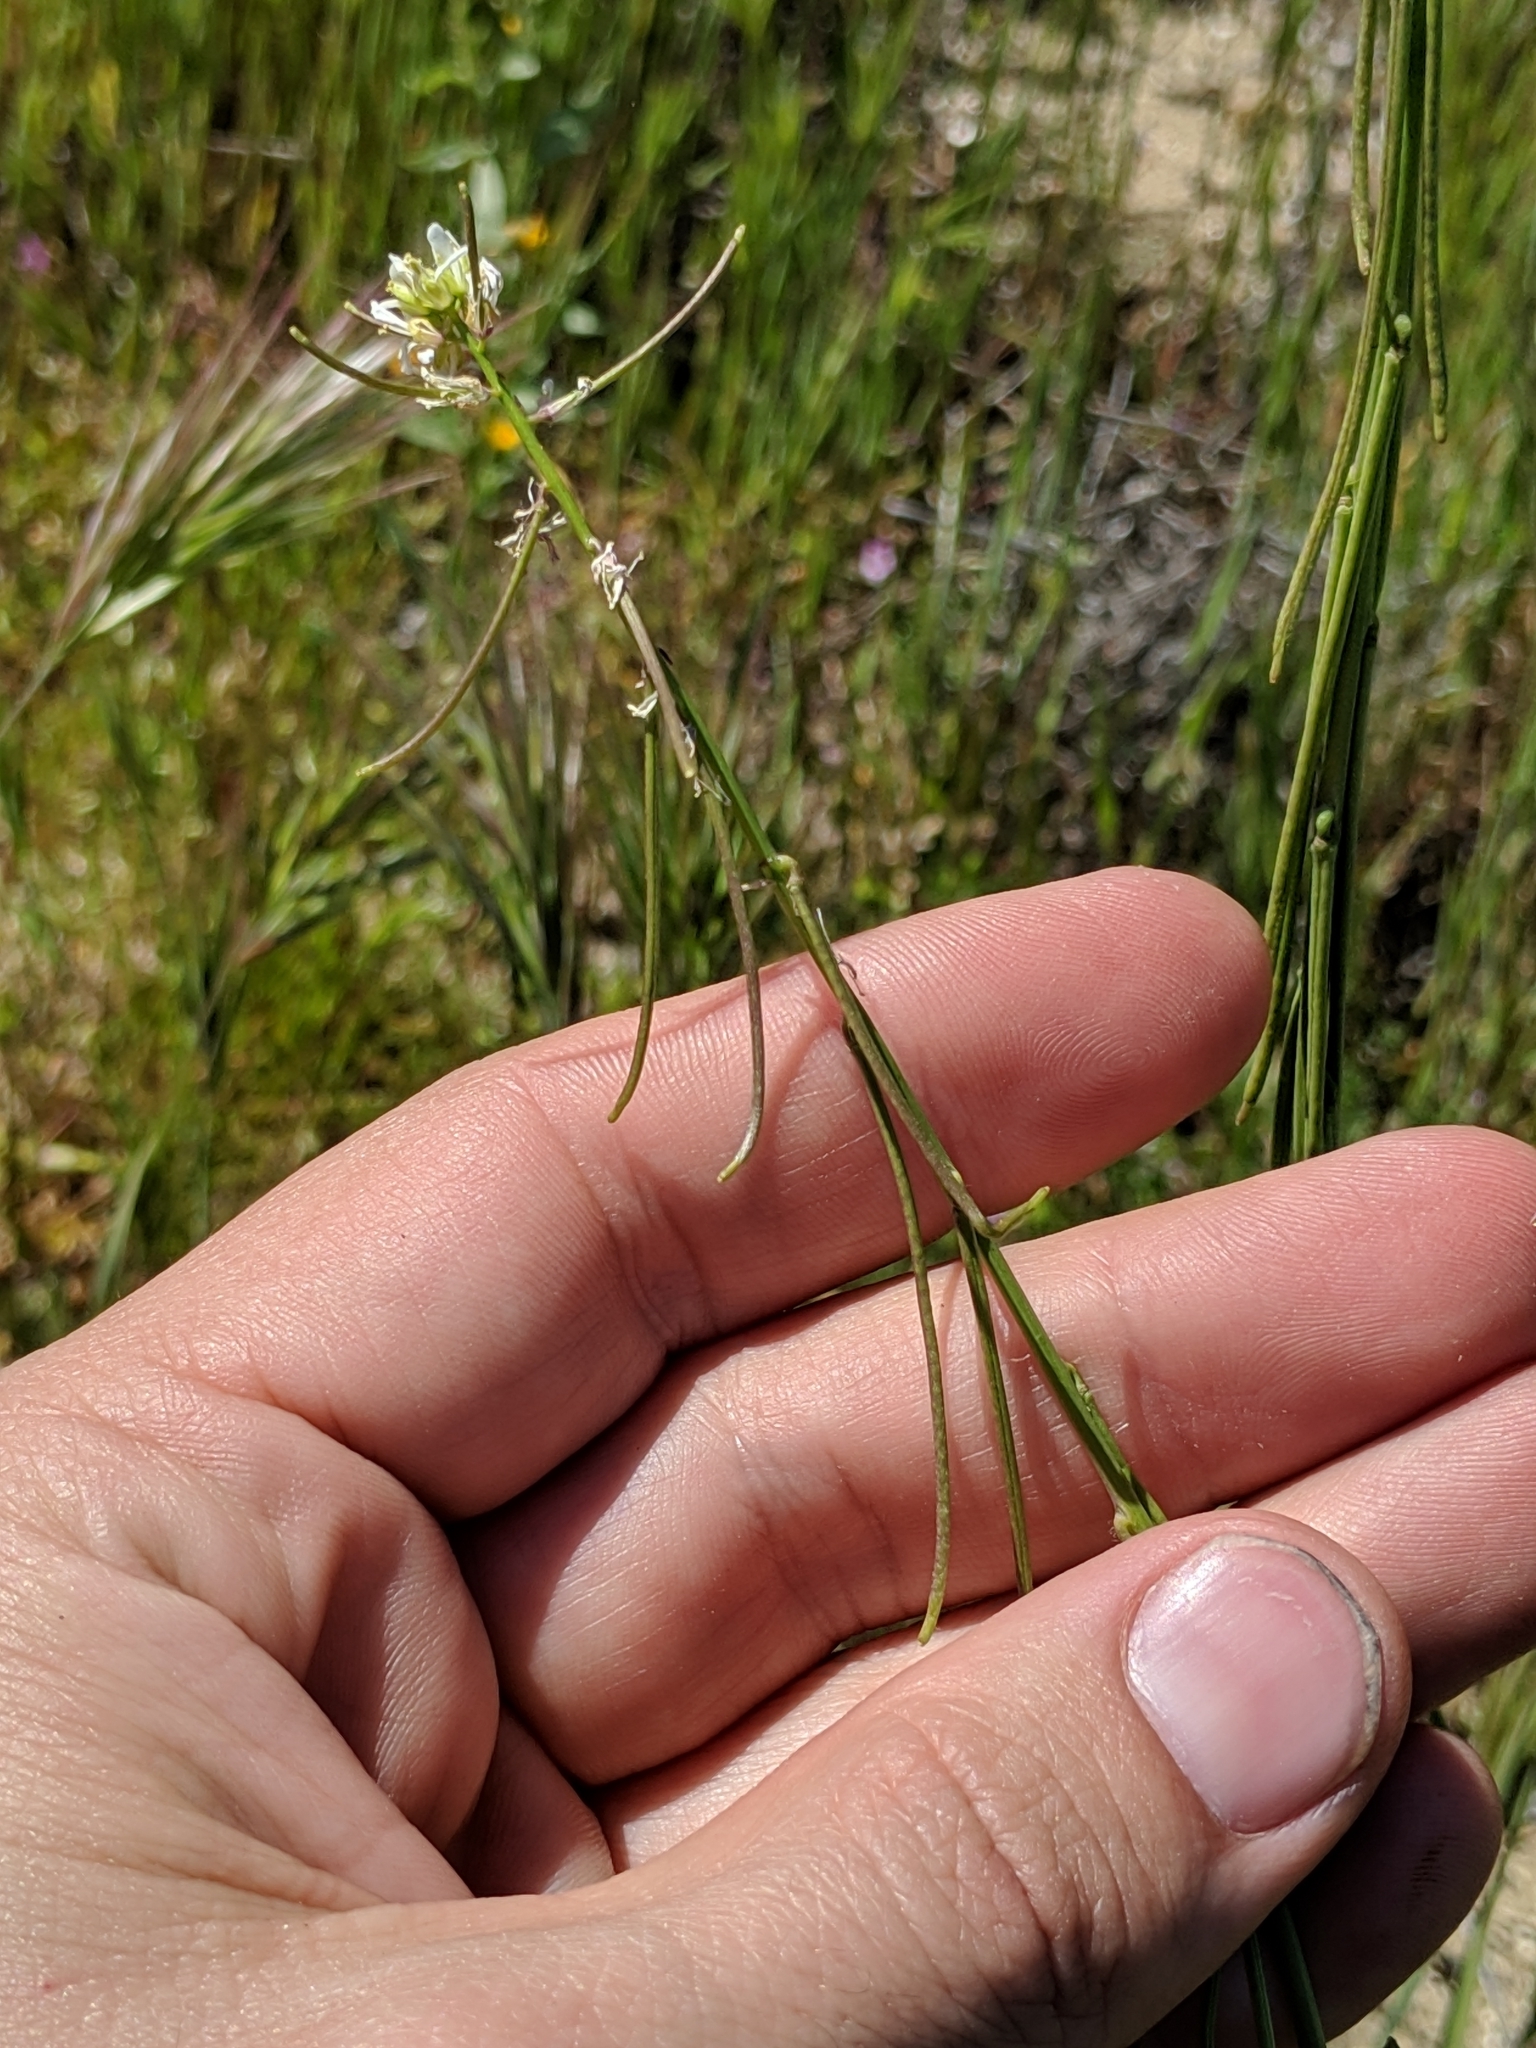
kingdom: Plantae
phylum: Tracheophyta
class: Magnoliopsida
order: Brassicales
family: Brassicaceae
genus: Streptanthus
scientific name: Streptanthus lasiophyllus
